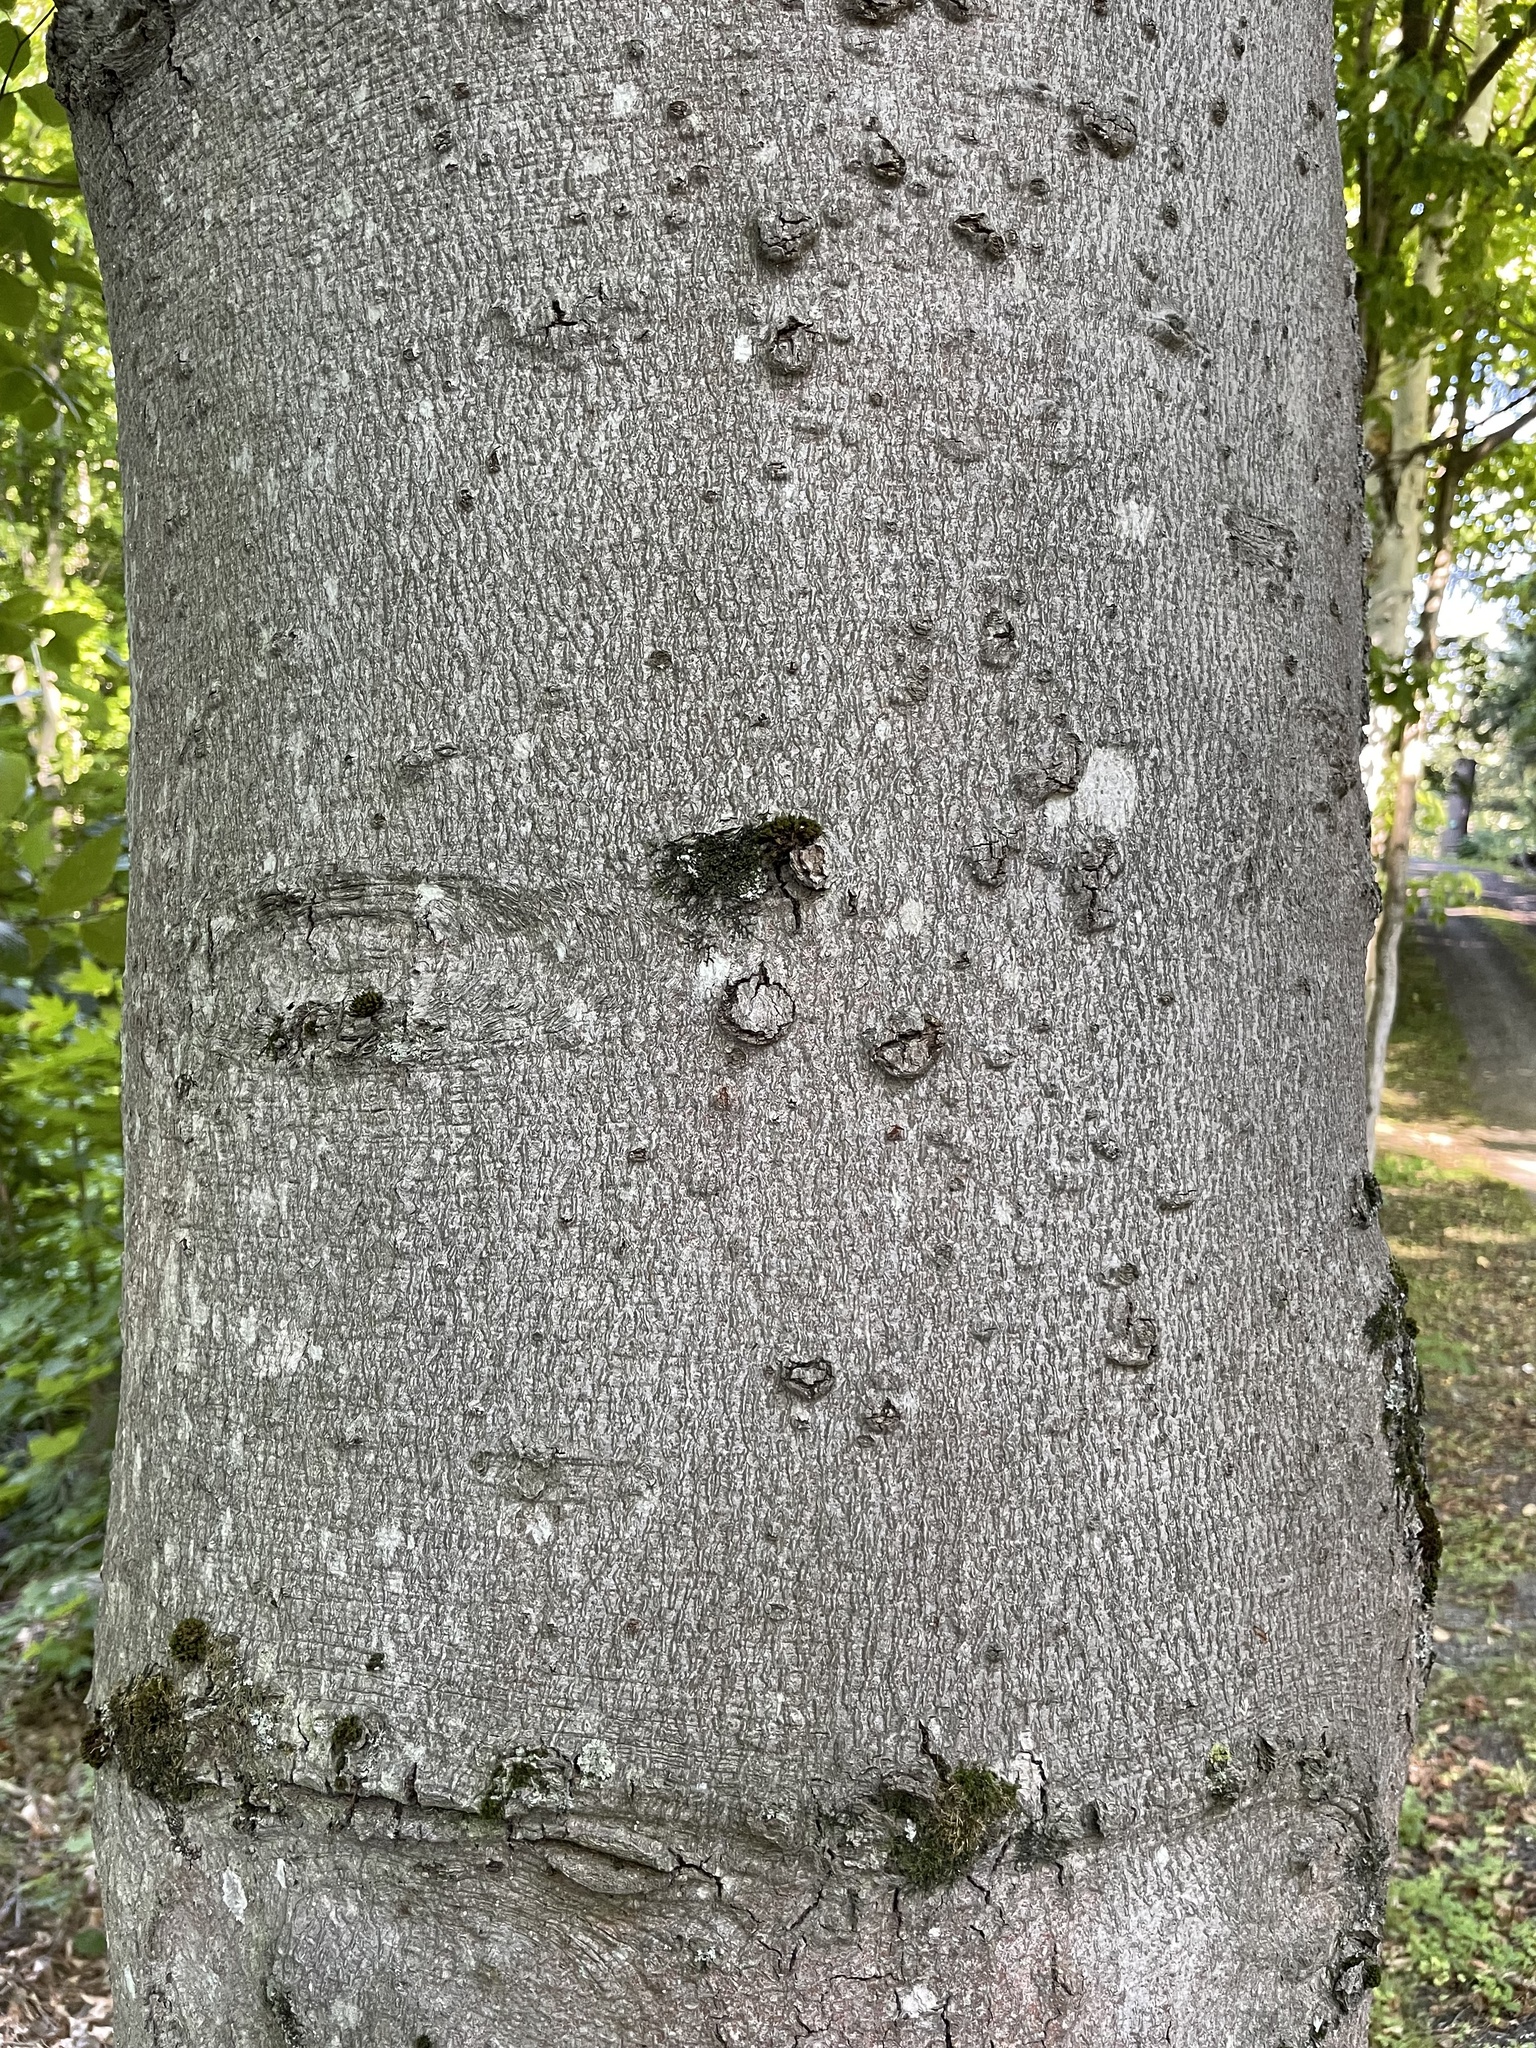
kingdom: Plantae
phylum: Tracheophyta
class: Magnoliopsida
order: Fagales
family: Fagaceae
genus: Fagus
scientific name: Fagus grandifolia
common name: American beech
